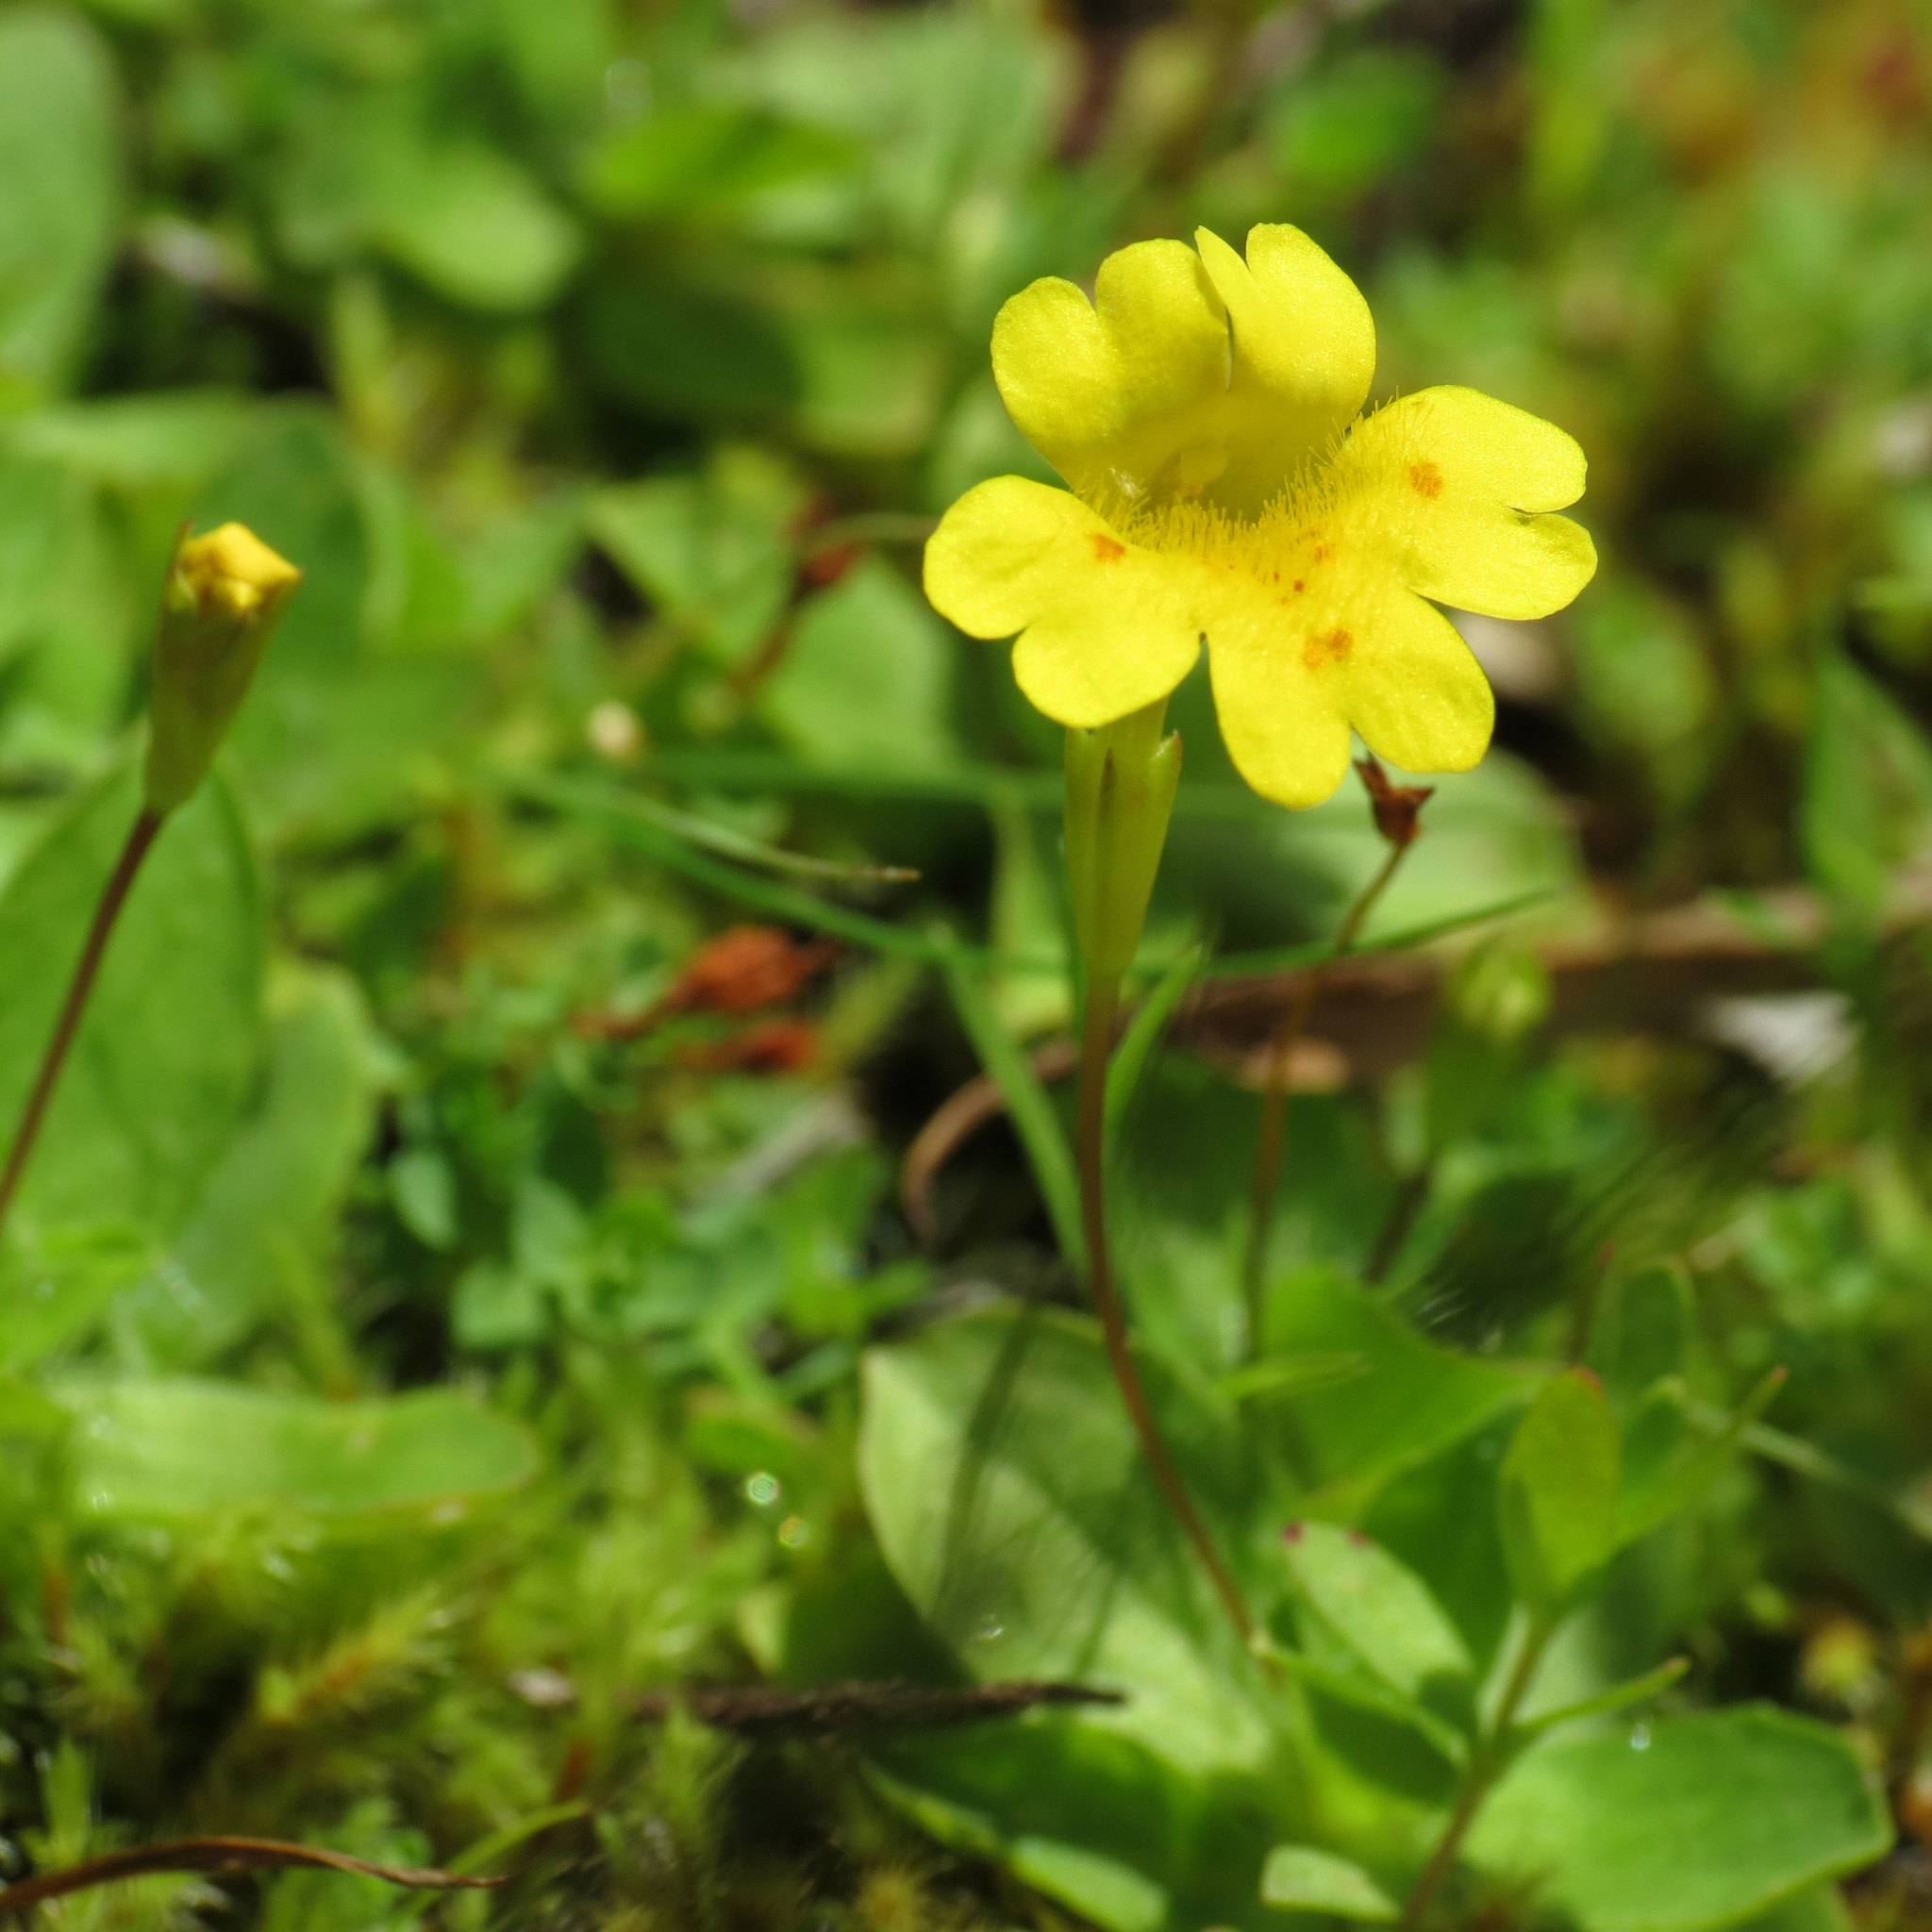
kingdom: Plantae
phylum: Tracheophyta
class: Magnoliopsida
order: Lamiales
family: Phrymaceae
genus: Erythranthe
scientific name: Erythranthe primuloides
